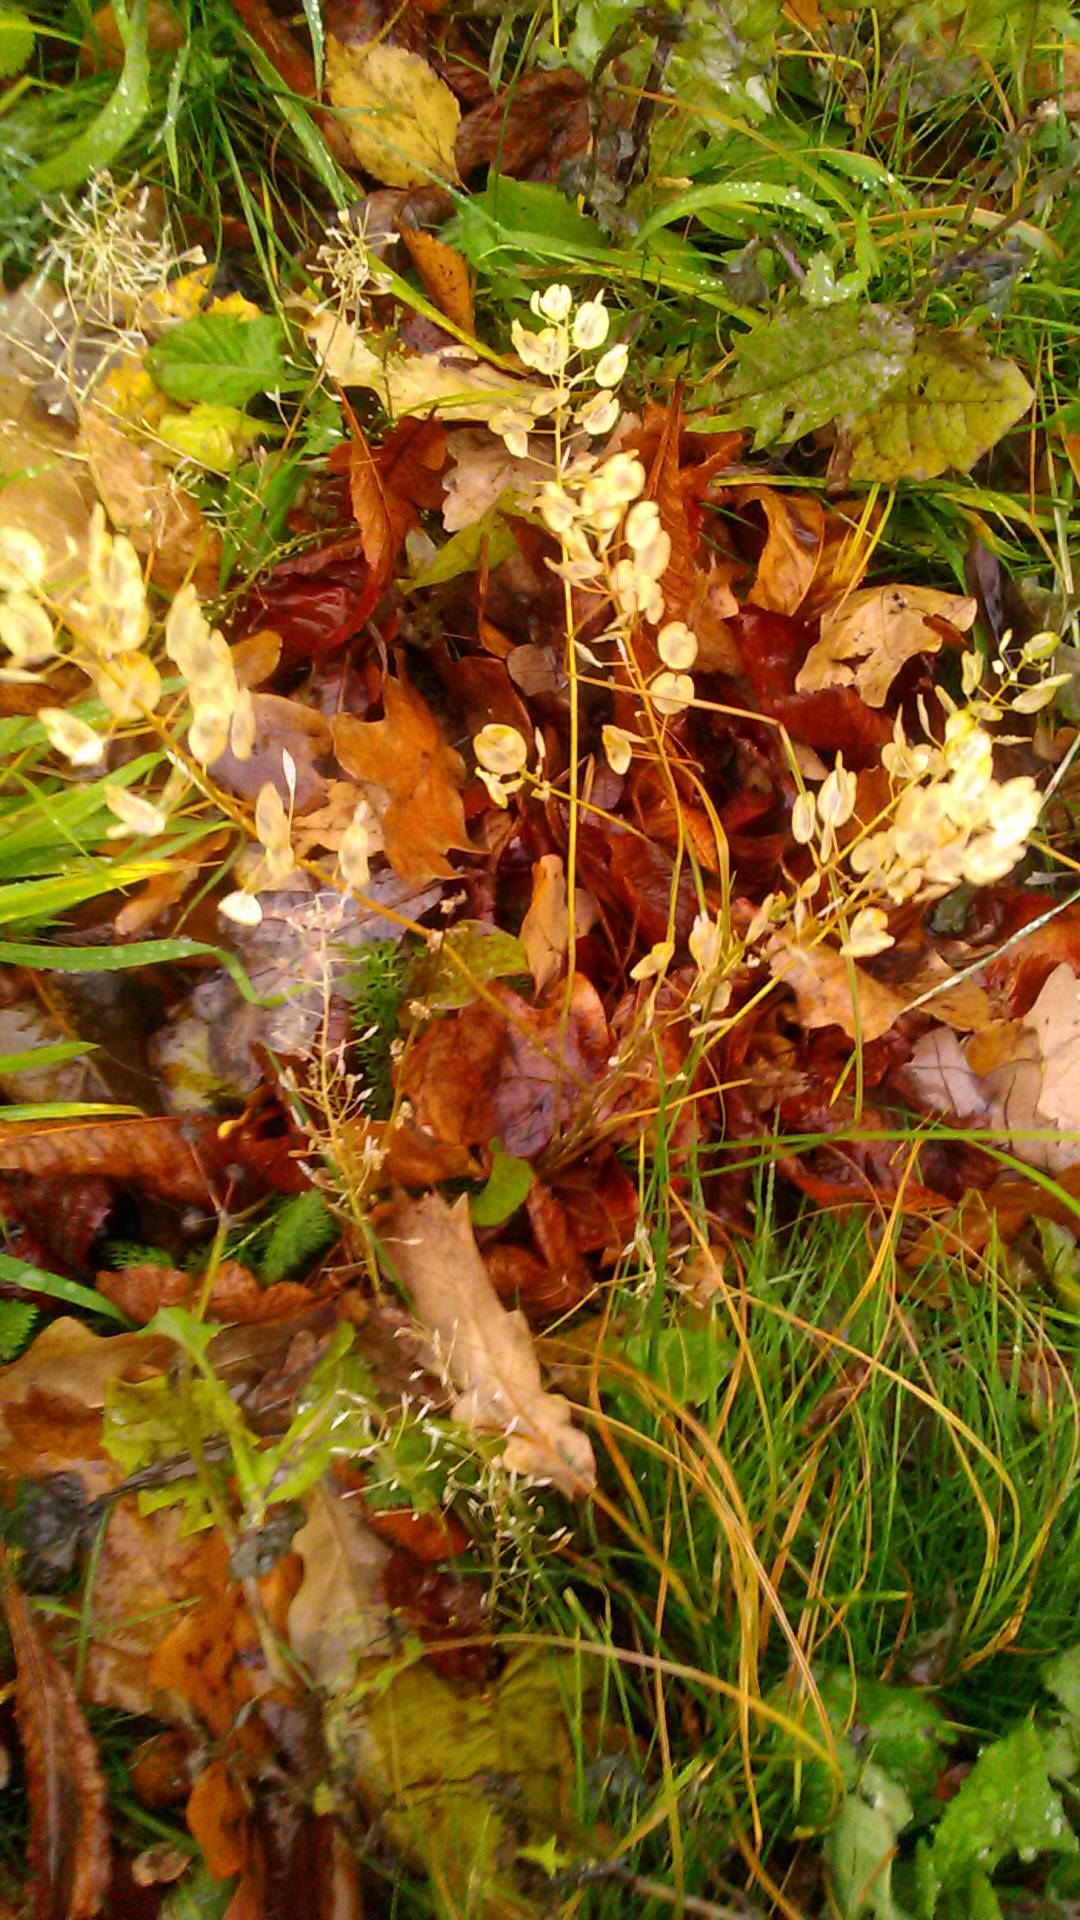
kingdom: Plantae
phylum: Tracheophyta
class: Magnoliopsida
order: Brassicales
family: Brassicaceae
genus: Thlaspi
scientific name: Thlaspi arvense
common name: Field pennycress
